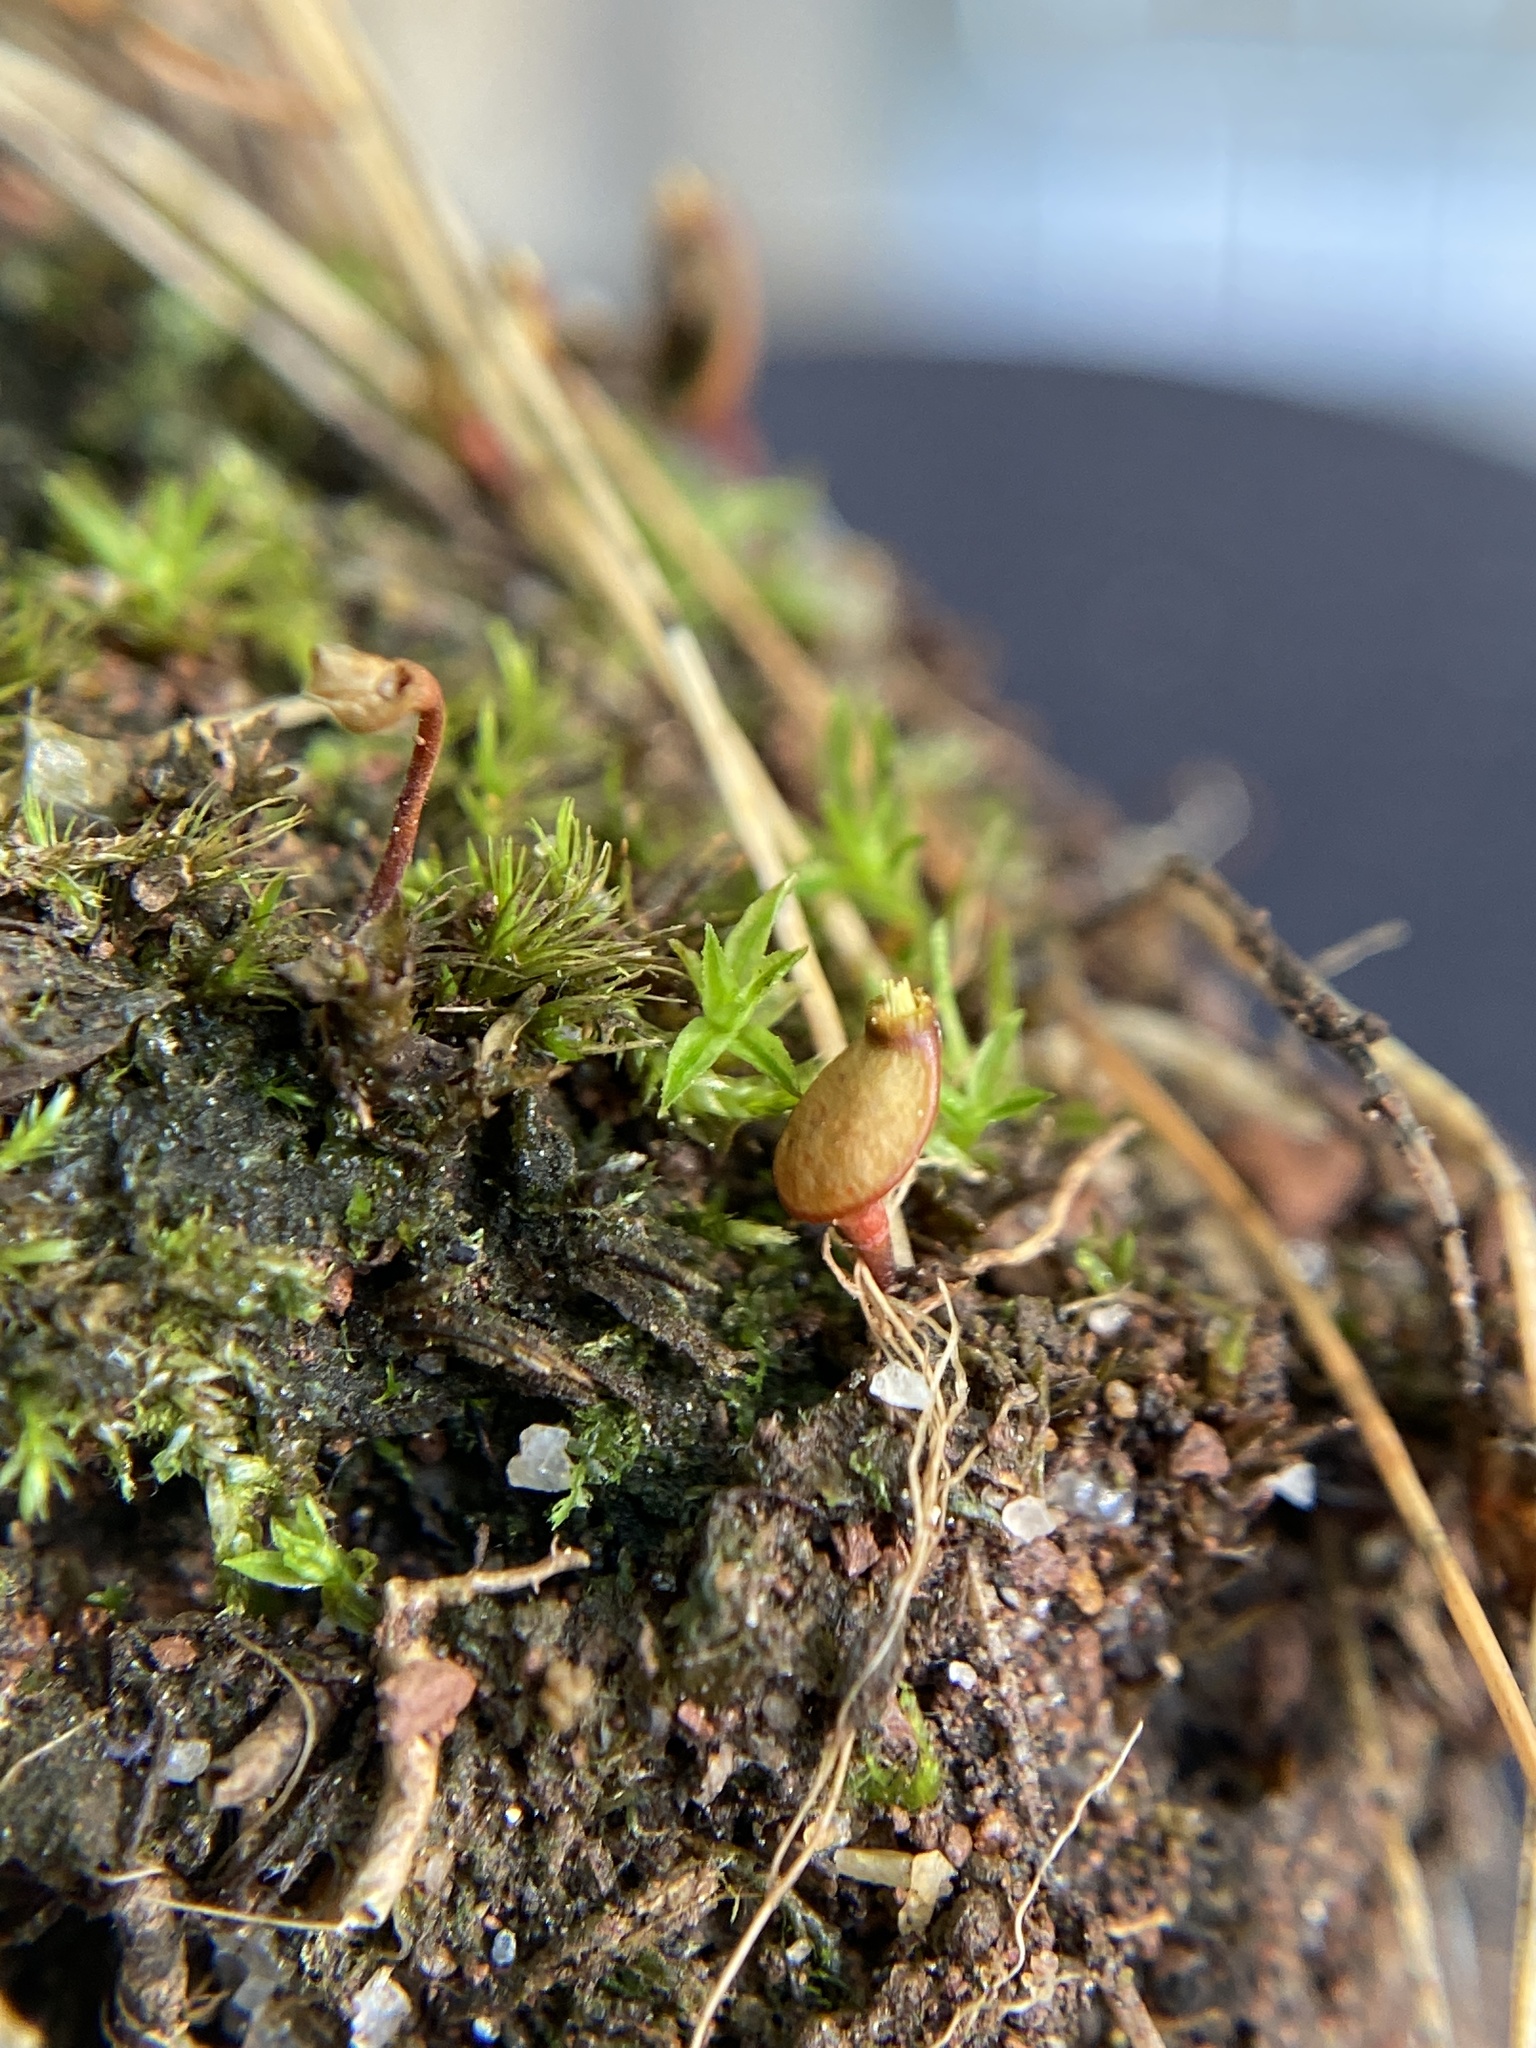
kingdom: Plantae
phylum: Bryophyta
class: Bryopsida
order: Buxbaumiales
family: Buxbaumiaceae
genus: Buxbaumia
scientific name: Buxbaumia aphylla
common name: Brown shield-moss
